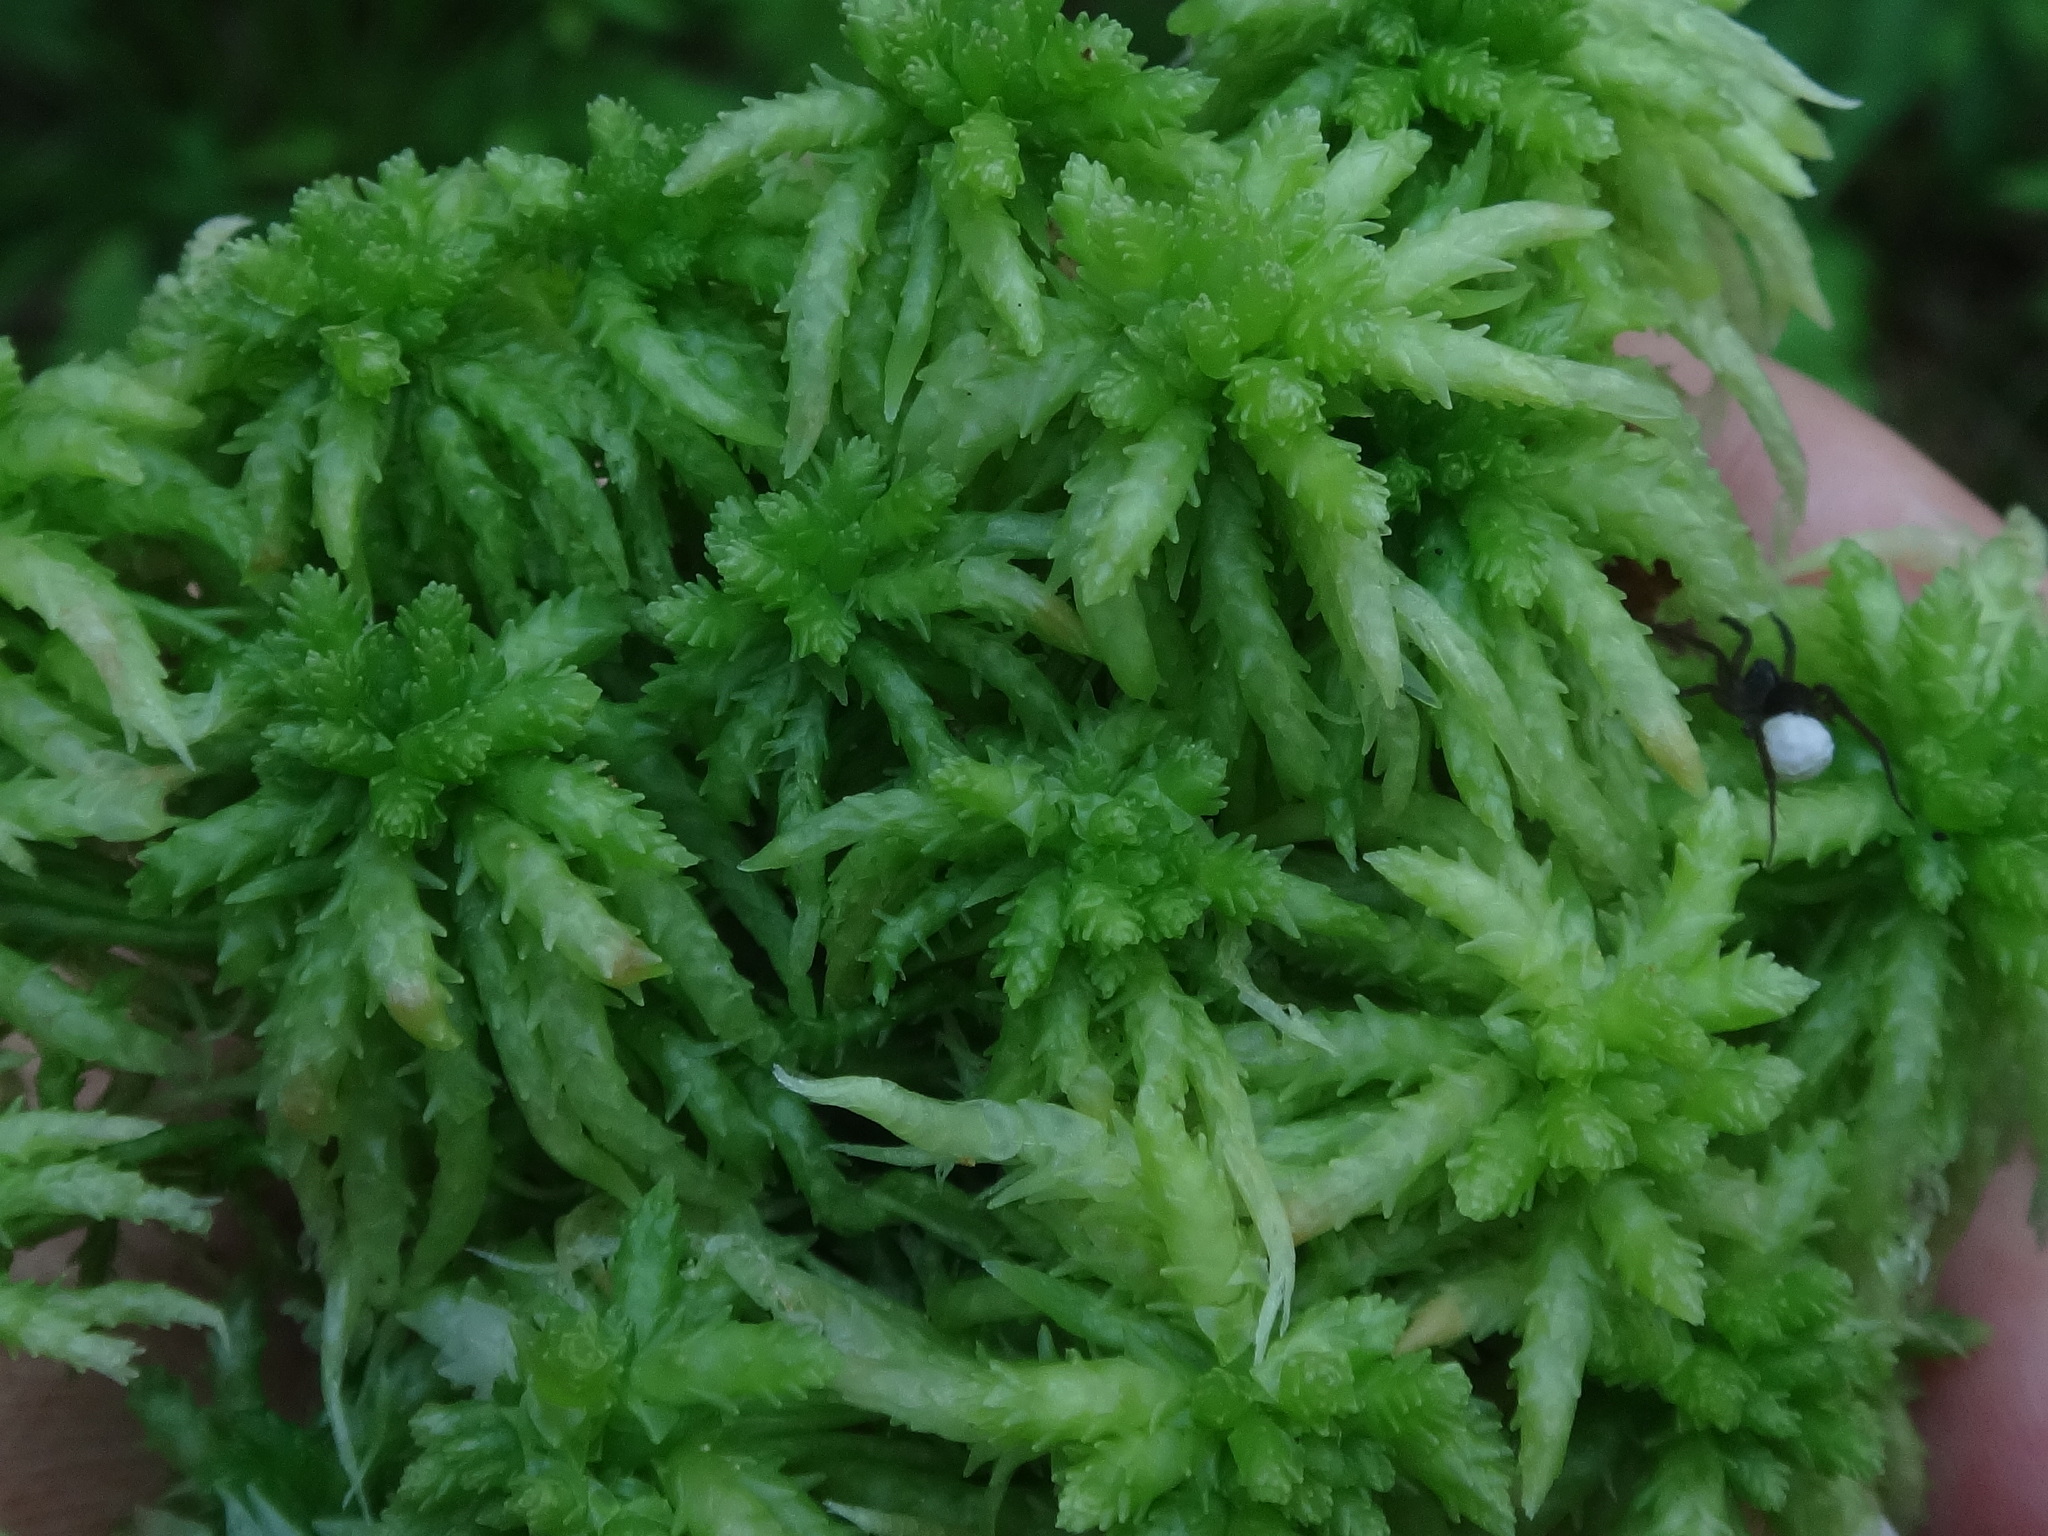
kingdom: Plantae
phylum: Bryophyta
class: Sphagnopsida
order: Sphagnales
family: Sphagnaceae
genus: Sphagnum
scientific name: Sphagnum palustre
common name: Blunt-leaved bog-moss
